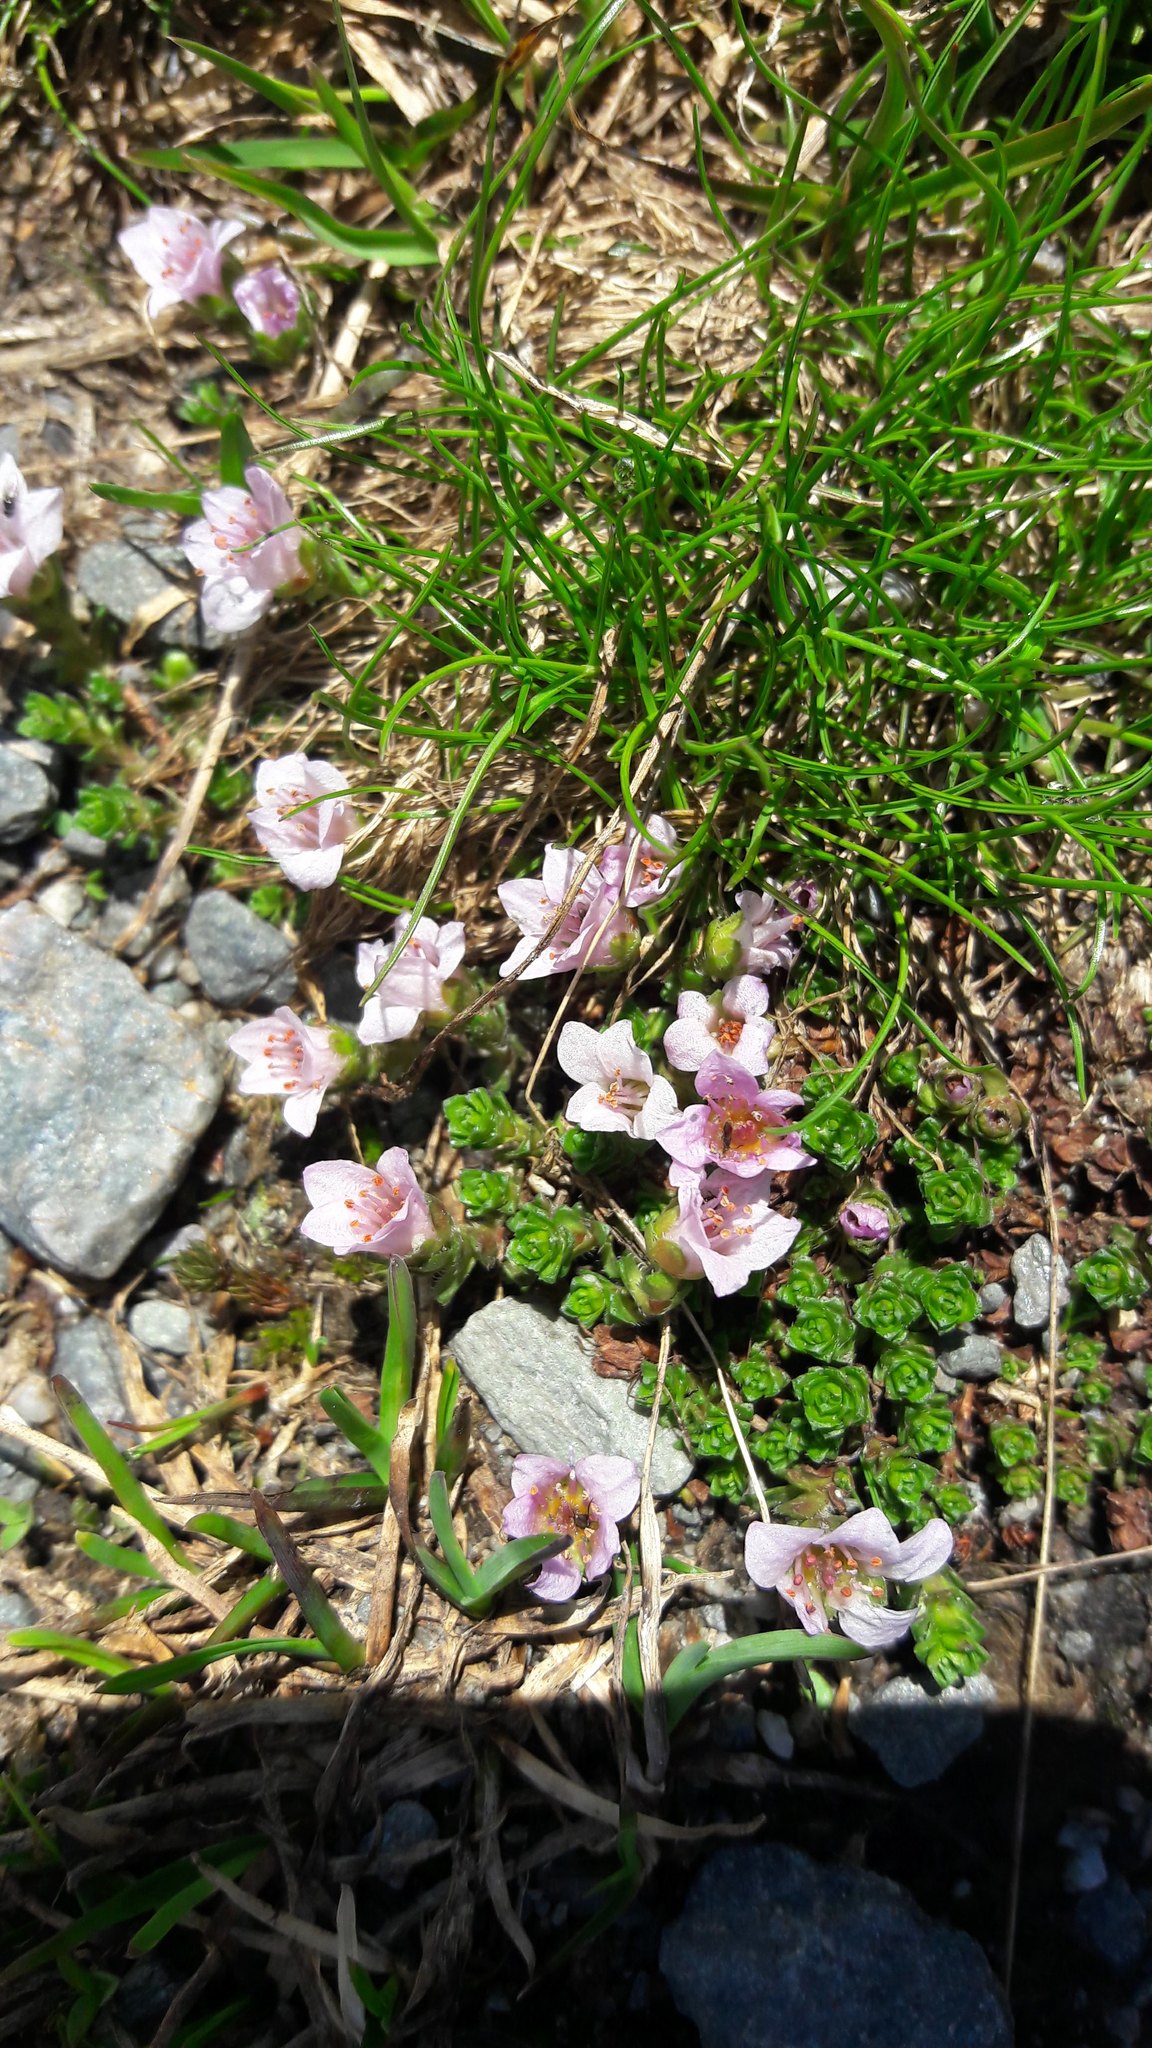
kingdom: Plantae
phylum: Tracheophyta
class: Magnoliopsida
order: Saxifragales
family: Saxifragaceae
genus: Saxifraga
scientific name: Saxifraga oppositifolia
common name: Purple saxifrage
